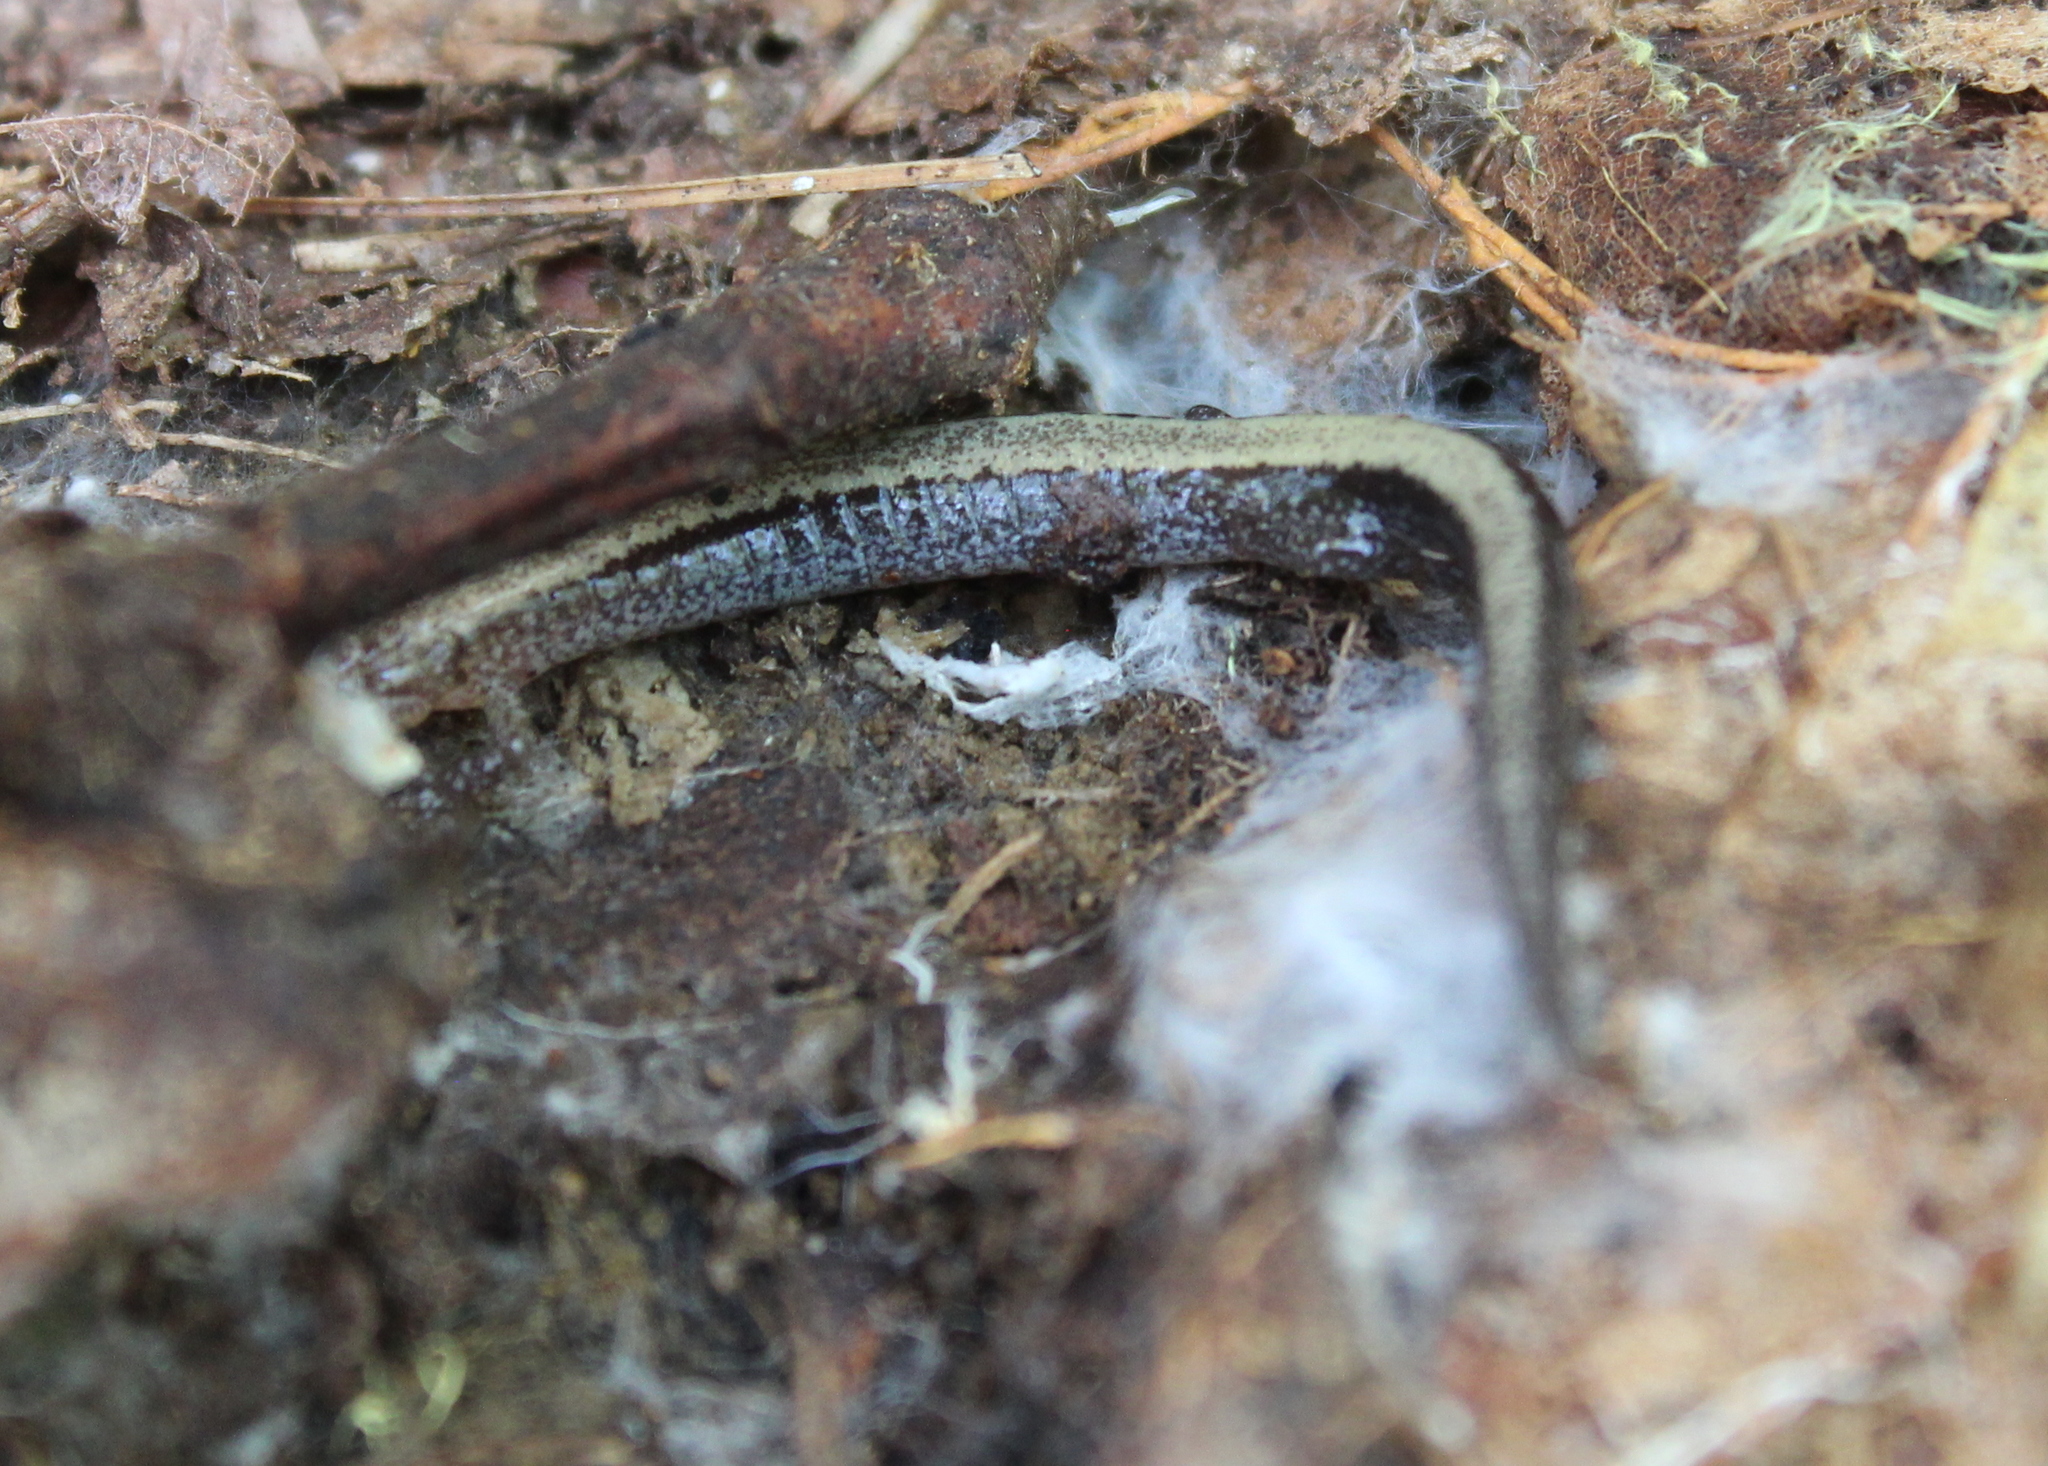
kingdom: Animalia
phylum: Chordata
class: Amphibia
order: Caudata
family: Plethodontidae
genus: Plethodon
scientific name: Plethodon cinereus
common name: Redback salamander
